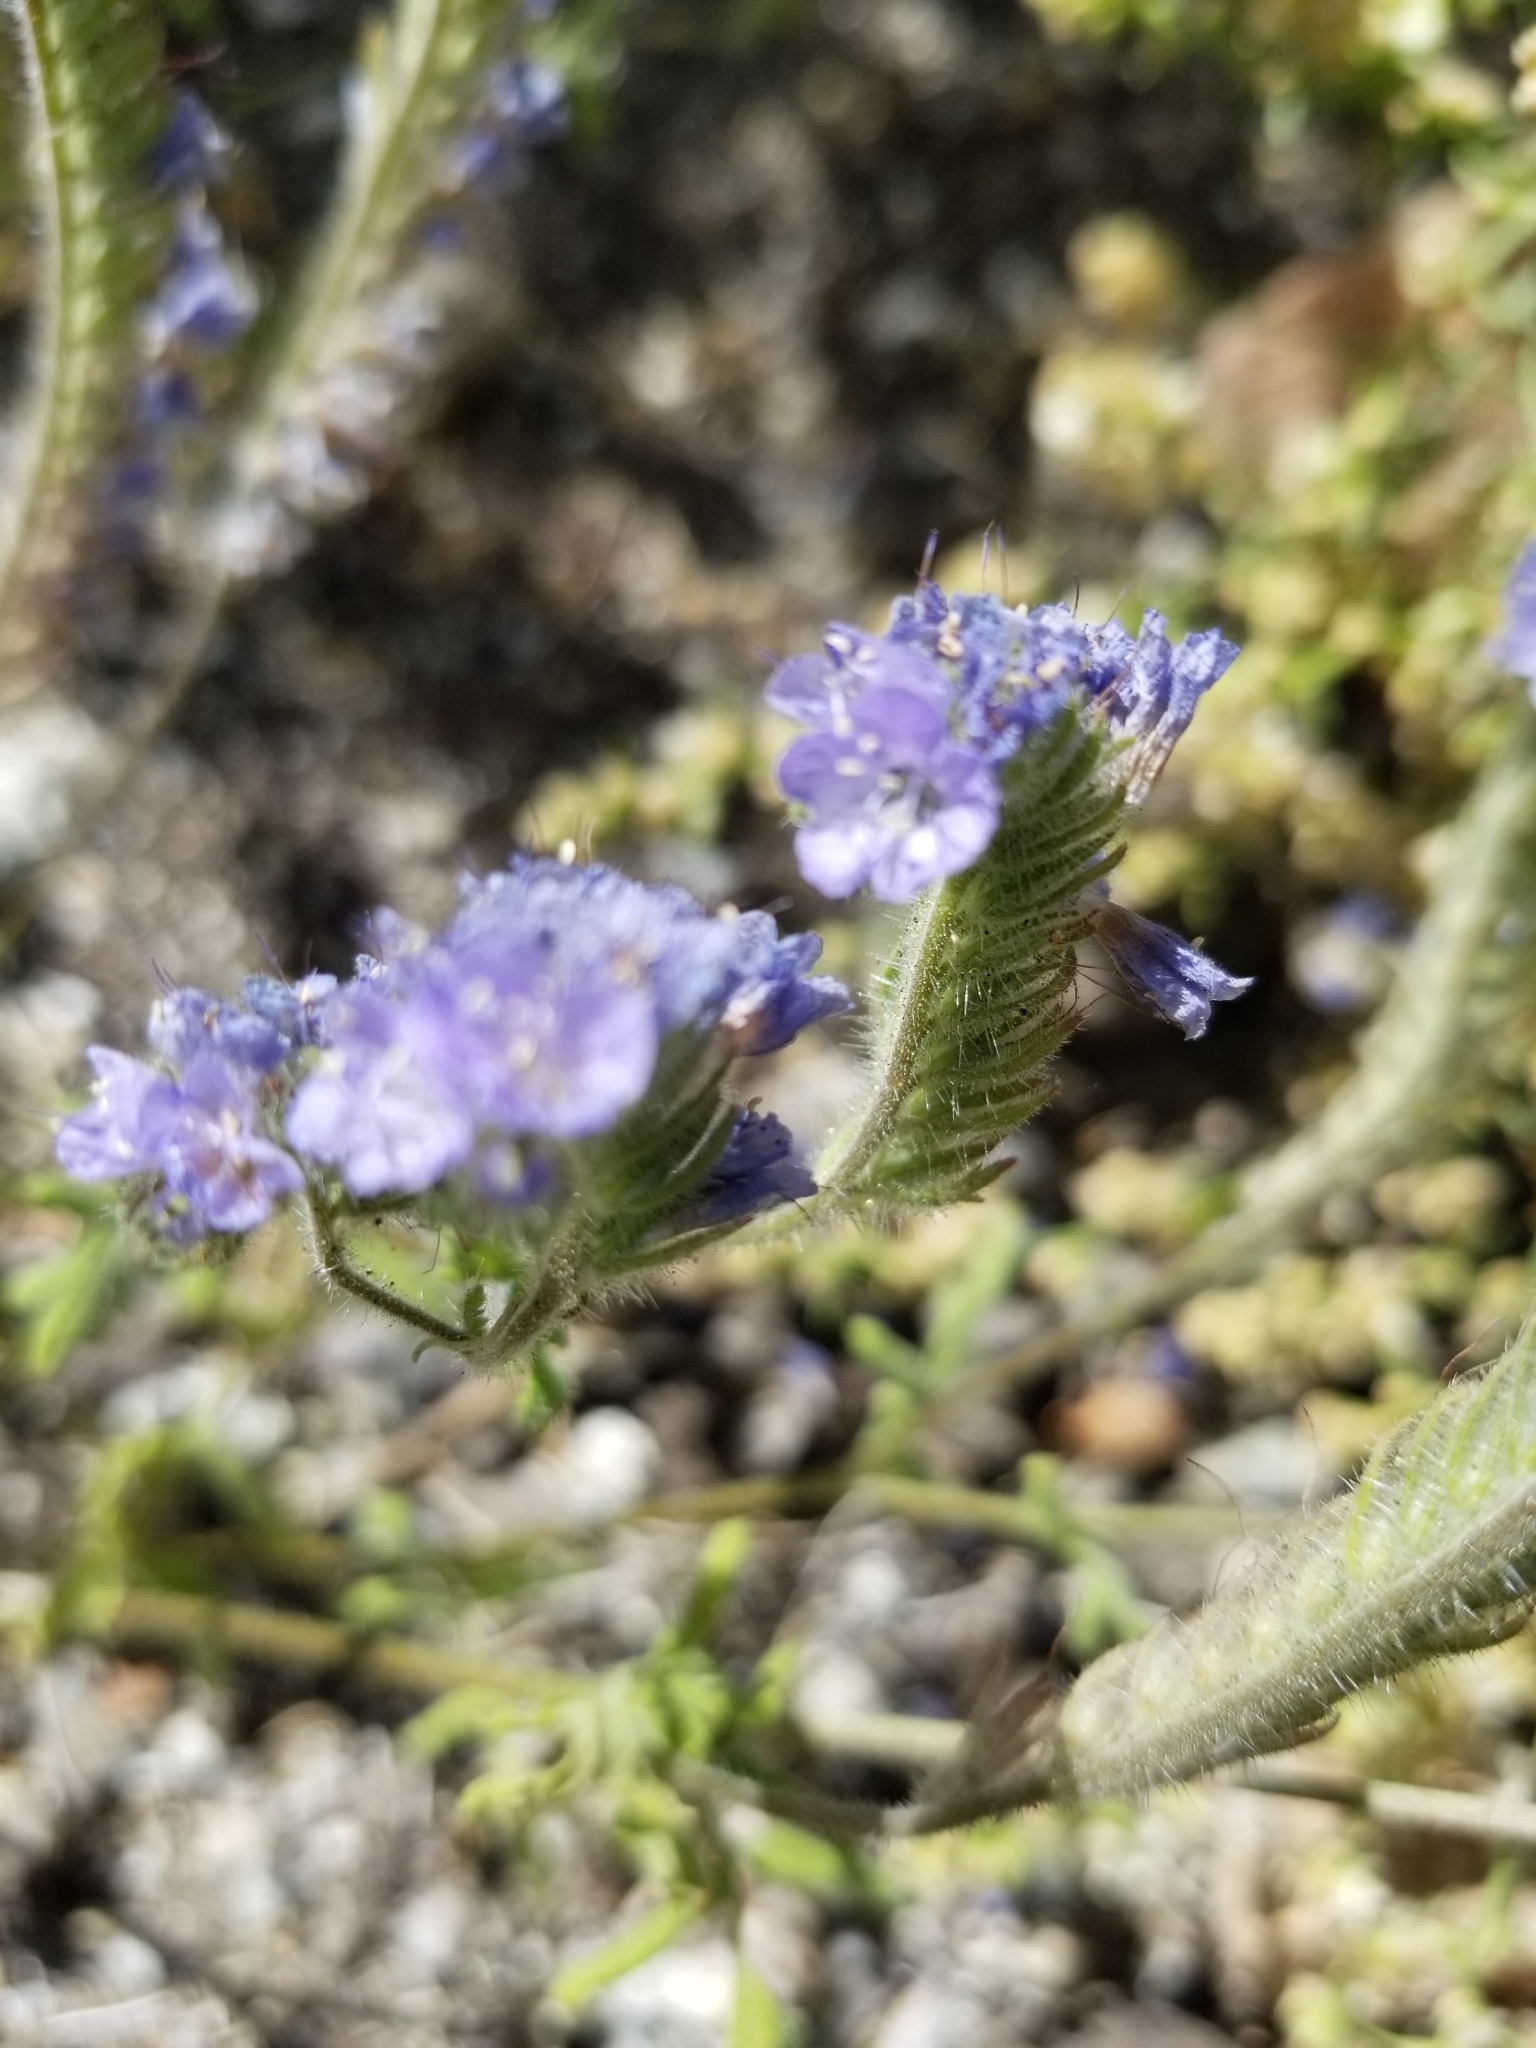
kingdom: Plantae
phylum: Tracheophyta
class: Magnoliopsida
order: Boraginales
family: Hydrophyllaceae
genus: Phacelia
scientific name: Phacelia distans
